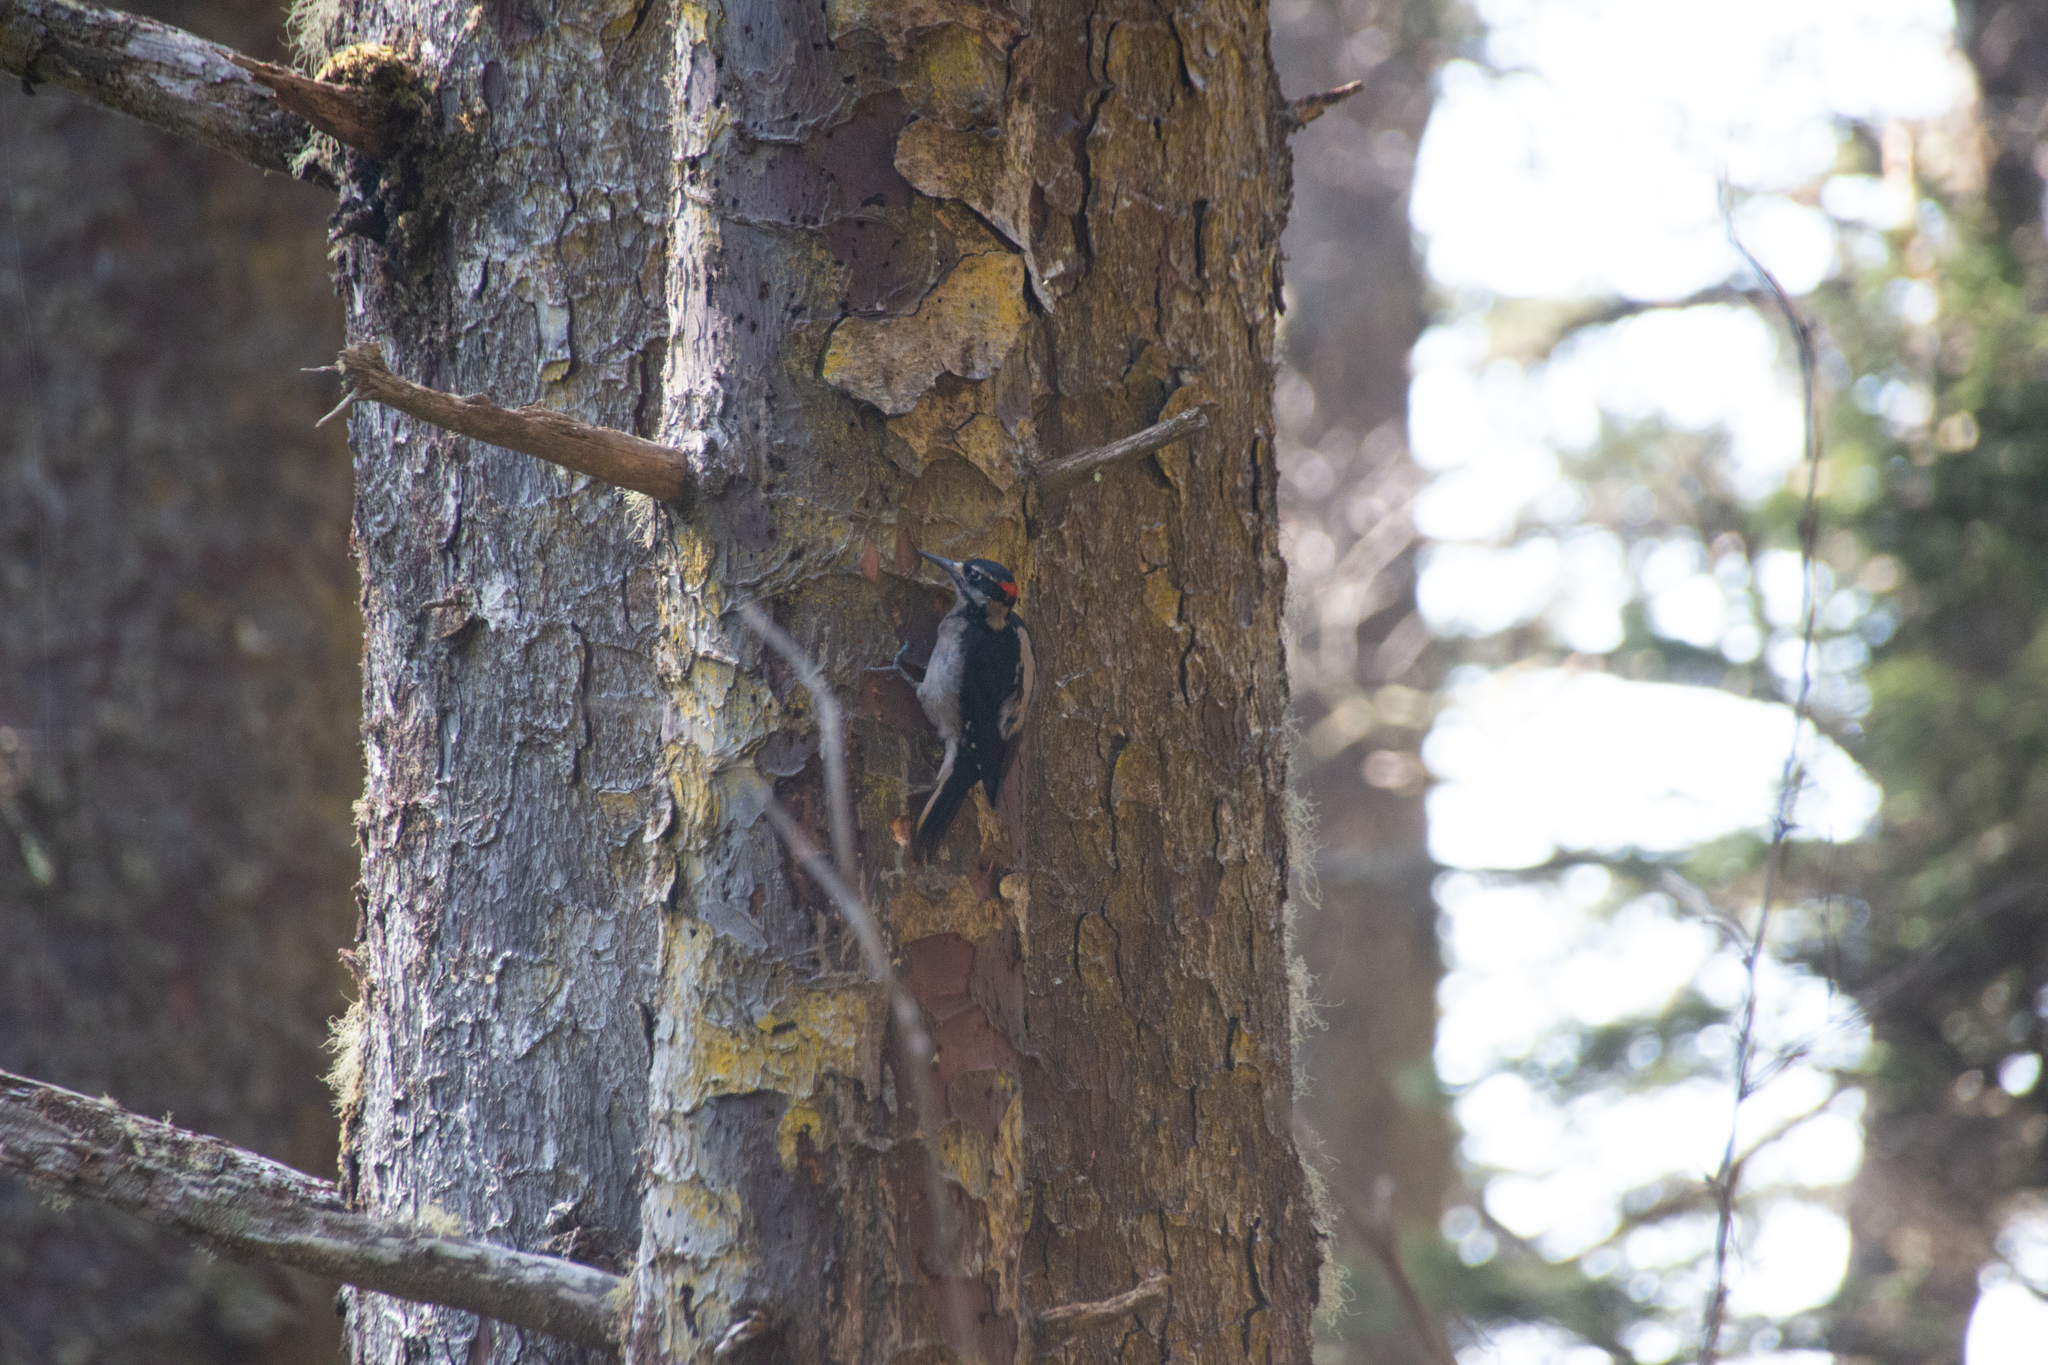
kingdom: Animalia
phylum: Chordata
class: Aves
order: Piciformes
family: Picidae
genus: Leuconotopicus
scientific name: Leuconotopicus villosus
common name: Hairy woodpecker
